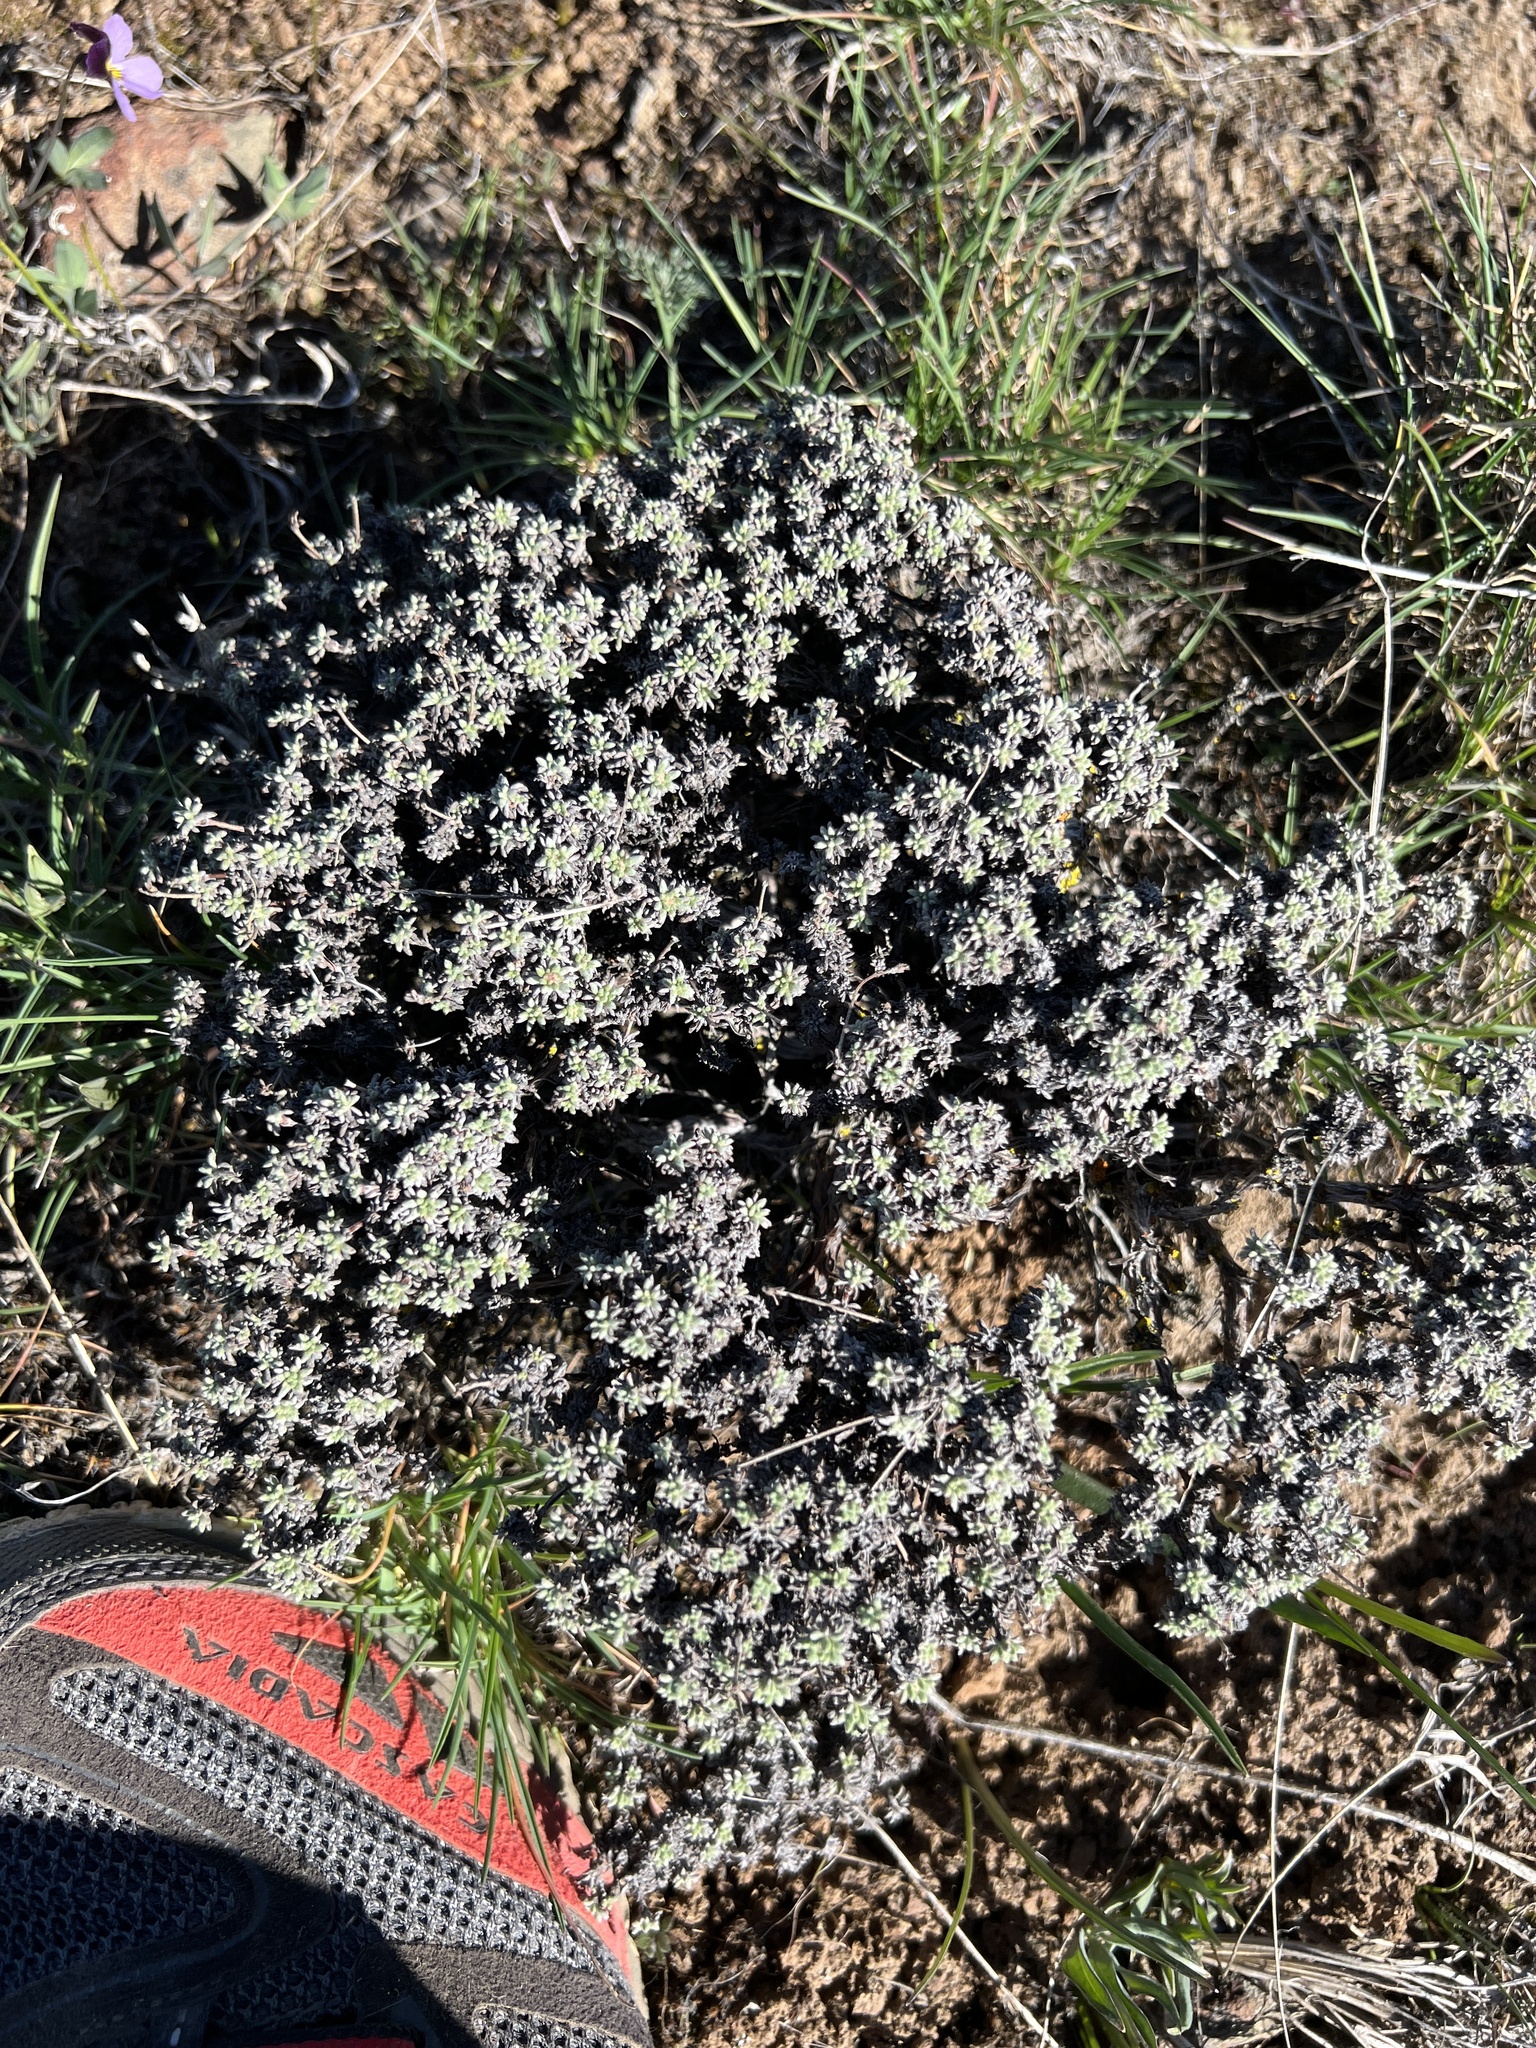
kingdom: Plantae
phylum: Tracheophyta
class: Magnoliopsida
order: Caryophyllales
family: Polygonaceae
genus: Eriogonum
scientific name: Eriogonum thymoides
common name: Thyme-leaf wild buckwheat
